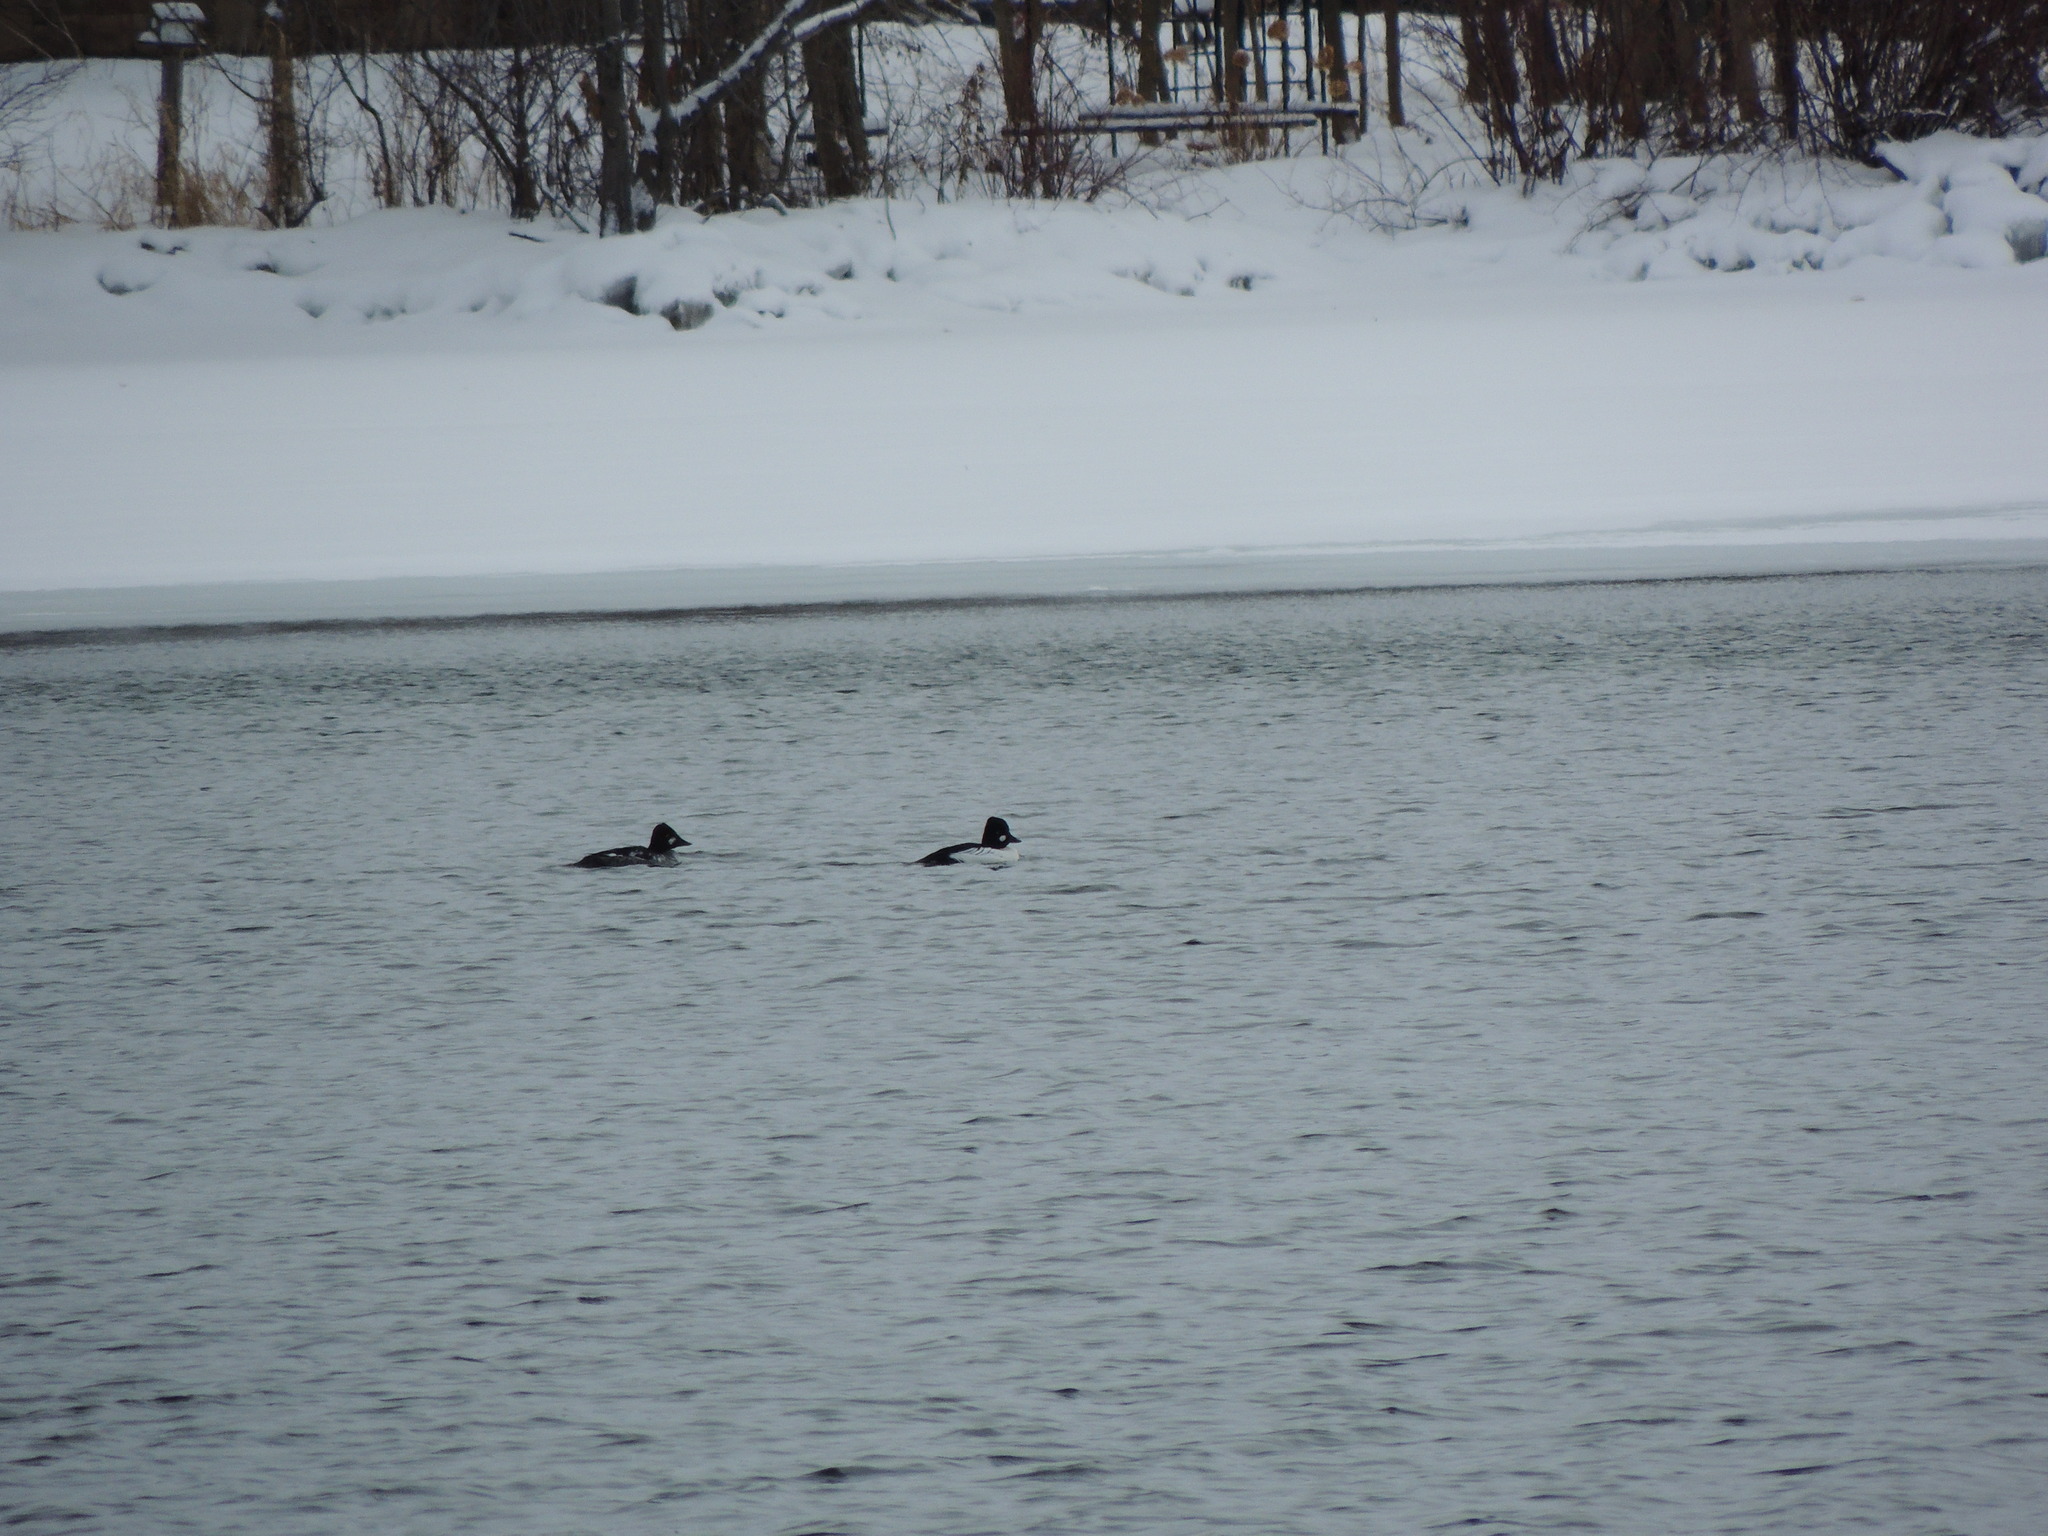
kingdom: Animalia
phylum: Chordata
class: Aves
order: Anseriformes
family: Anatidae
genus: Bucephala
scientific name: Bucephala clangula
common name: Common goldeneye
